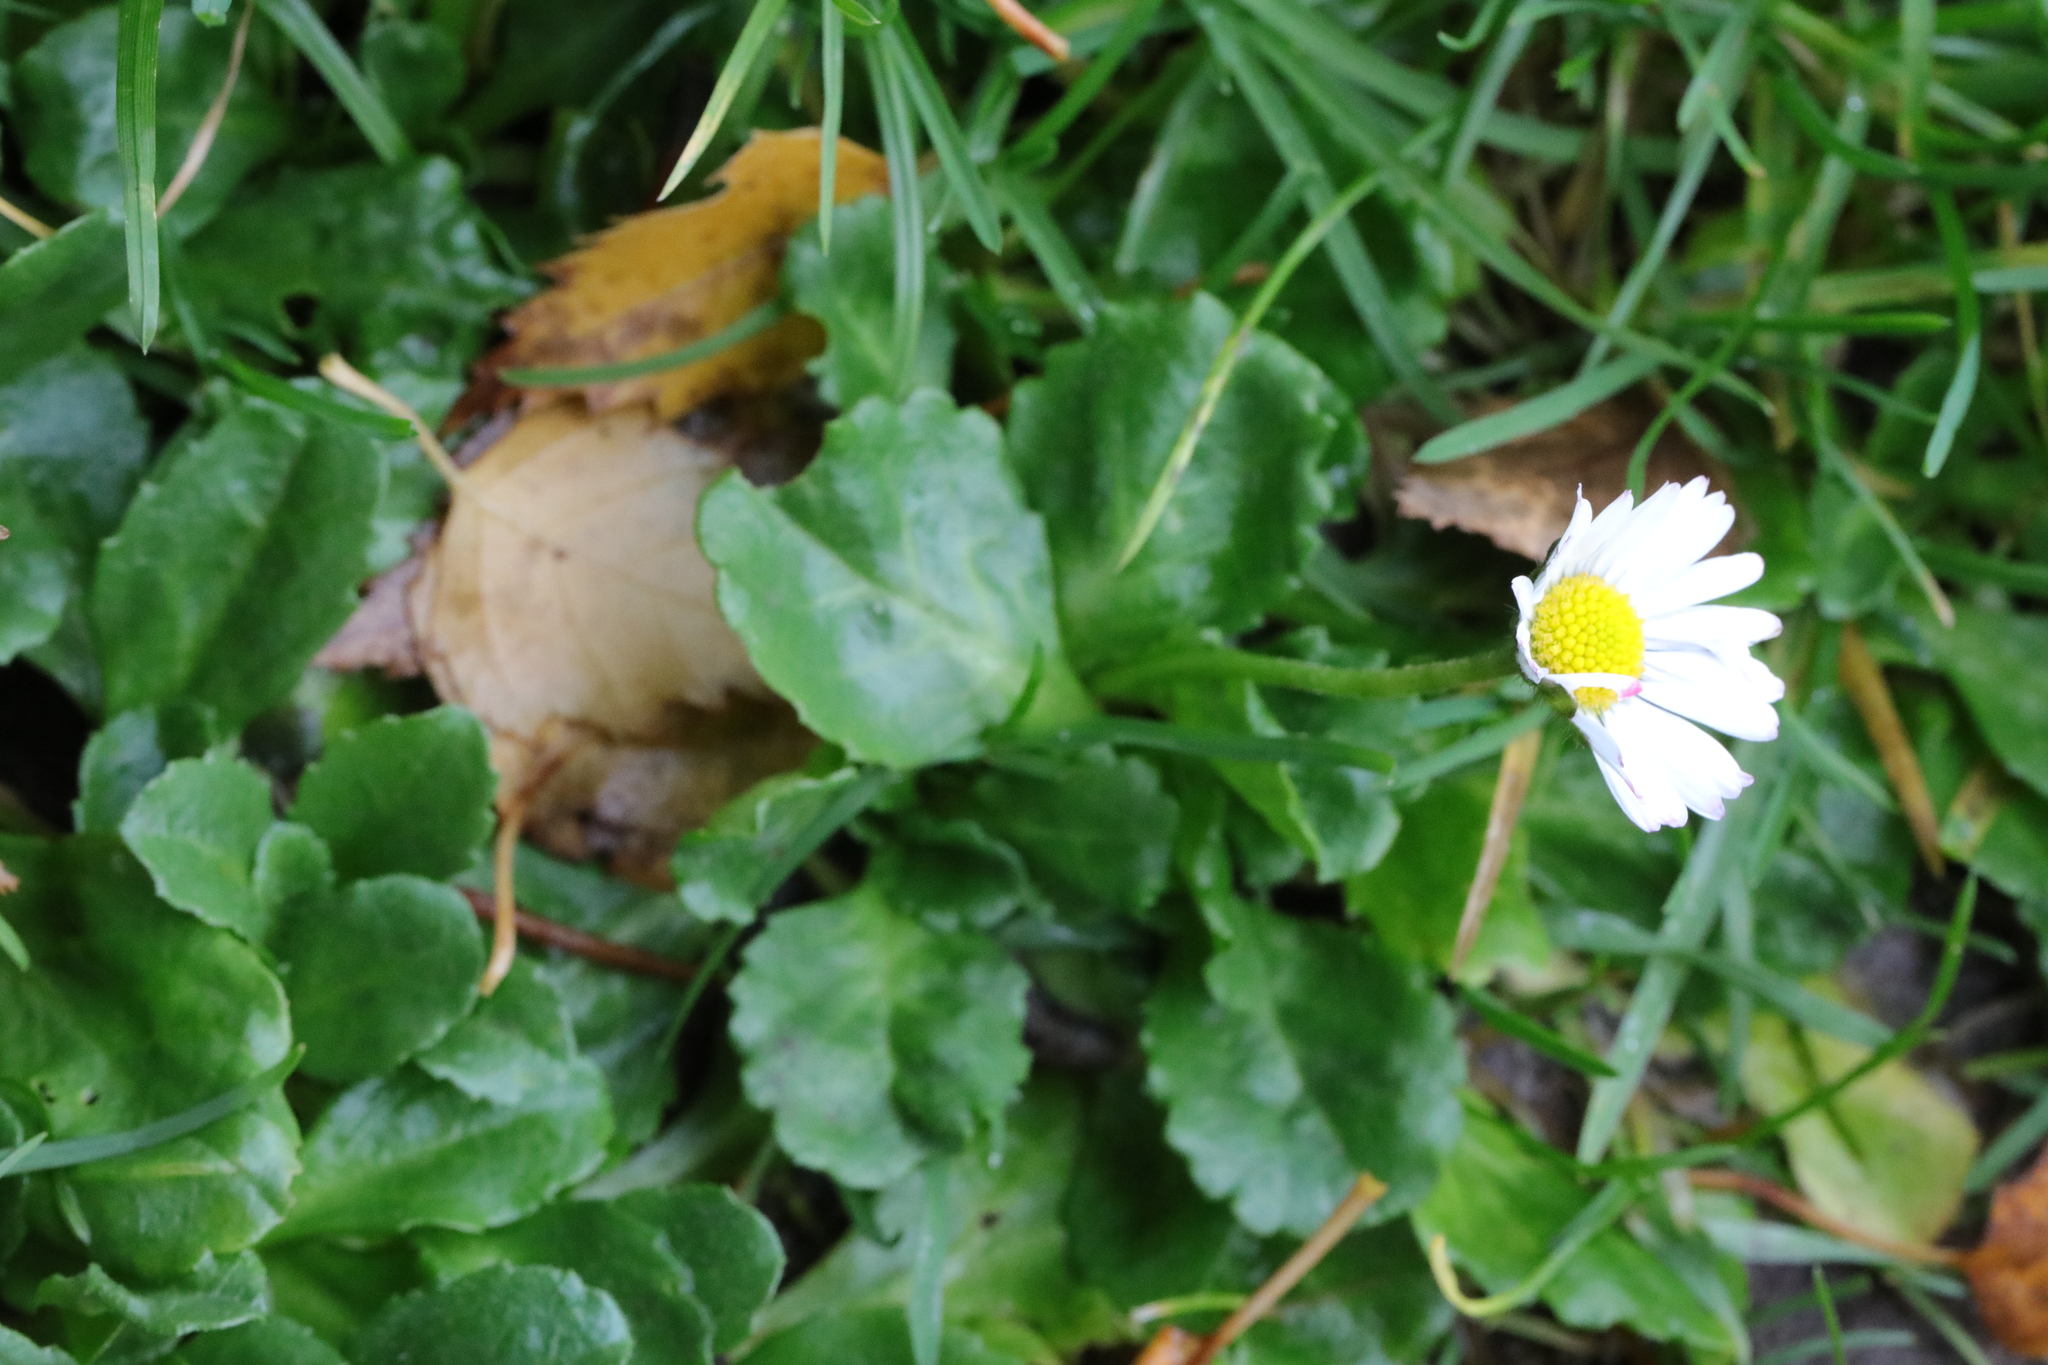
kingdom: Plantae
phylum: Tracheophyta
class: Magnoliopsida
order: Asterales
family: Asteraceae
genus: Bellis
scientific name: Bellis perennis
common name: Lawndaisy
